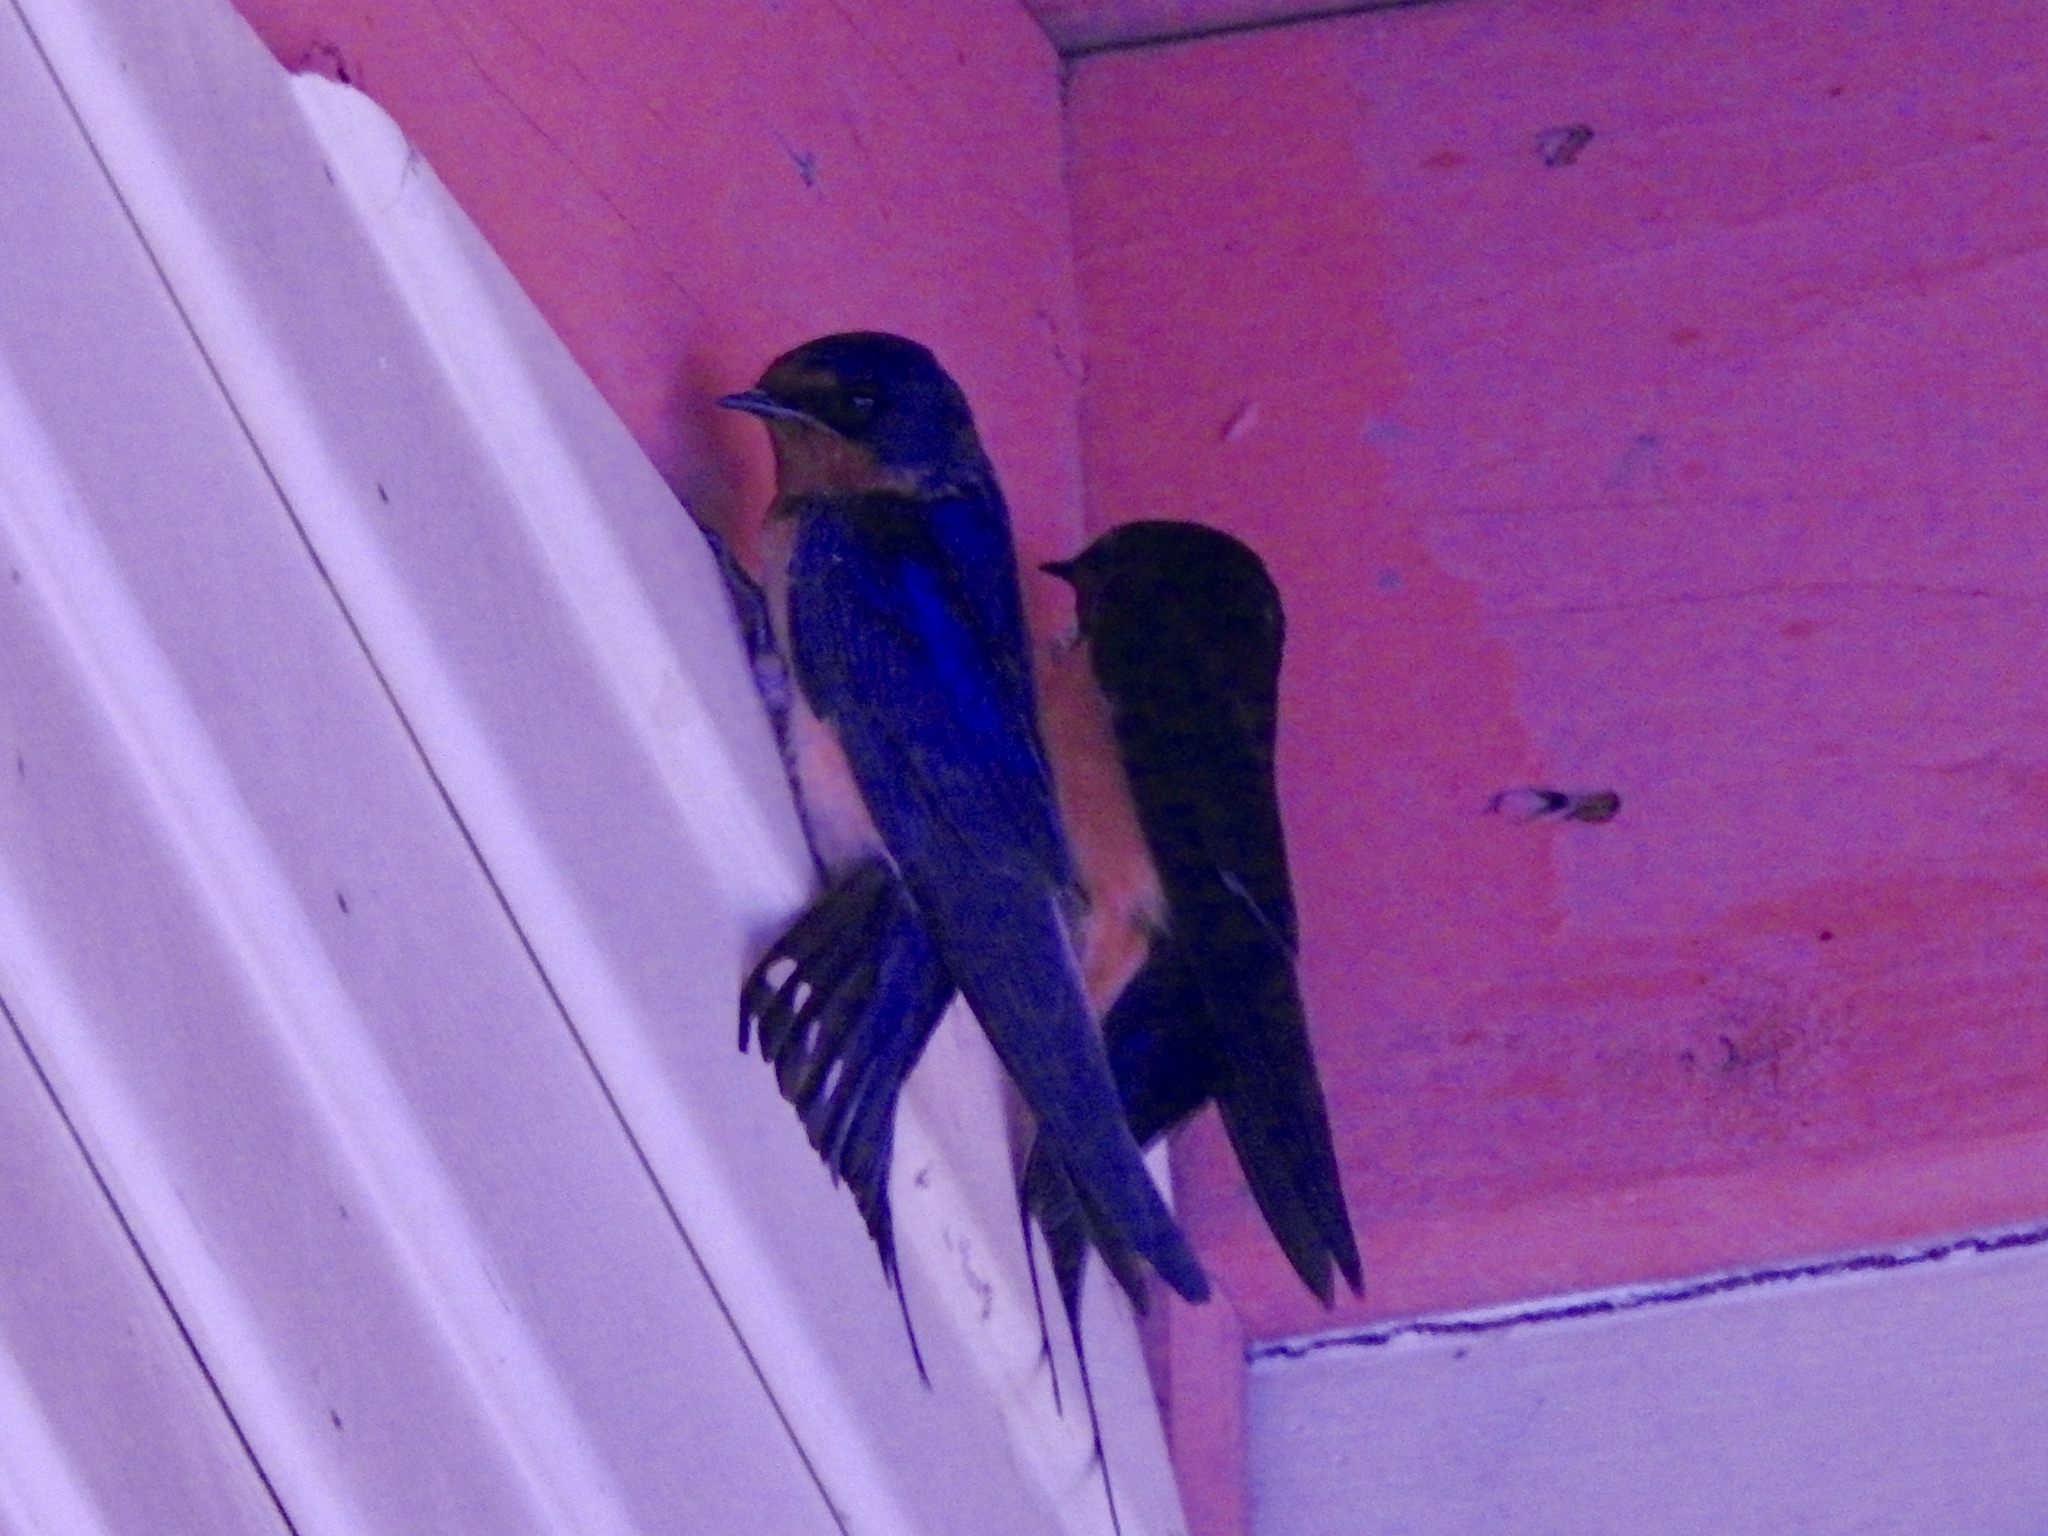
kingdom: Animalia
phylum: Chordata
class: Aves
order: Passeriformes
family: Hirundinidae
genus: Hirundo
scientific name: Hirundo rustica
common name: Barn swallow
